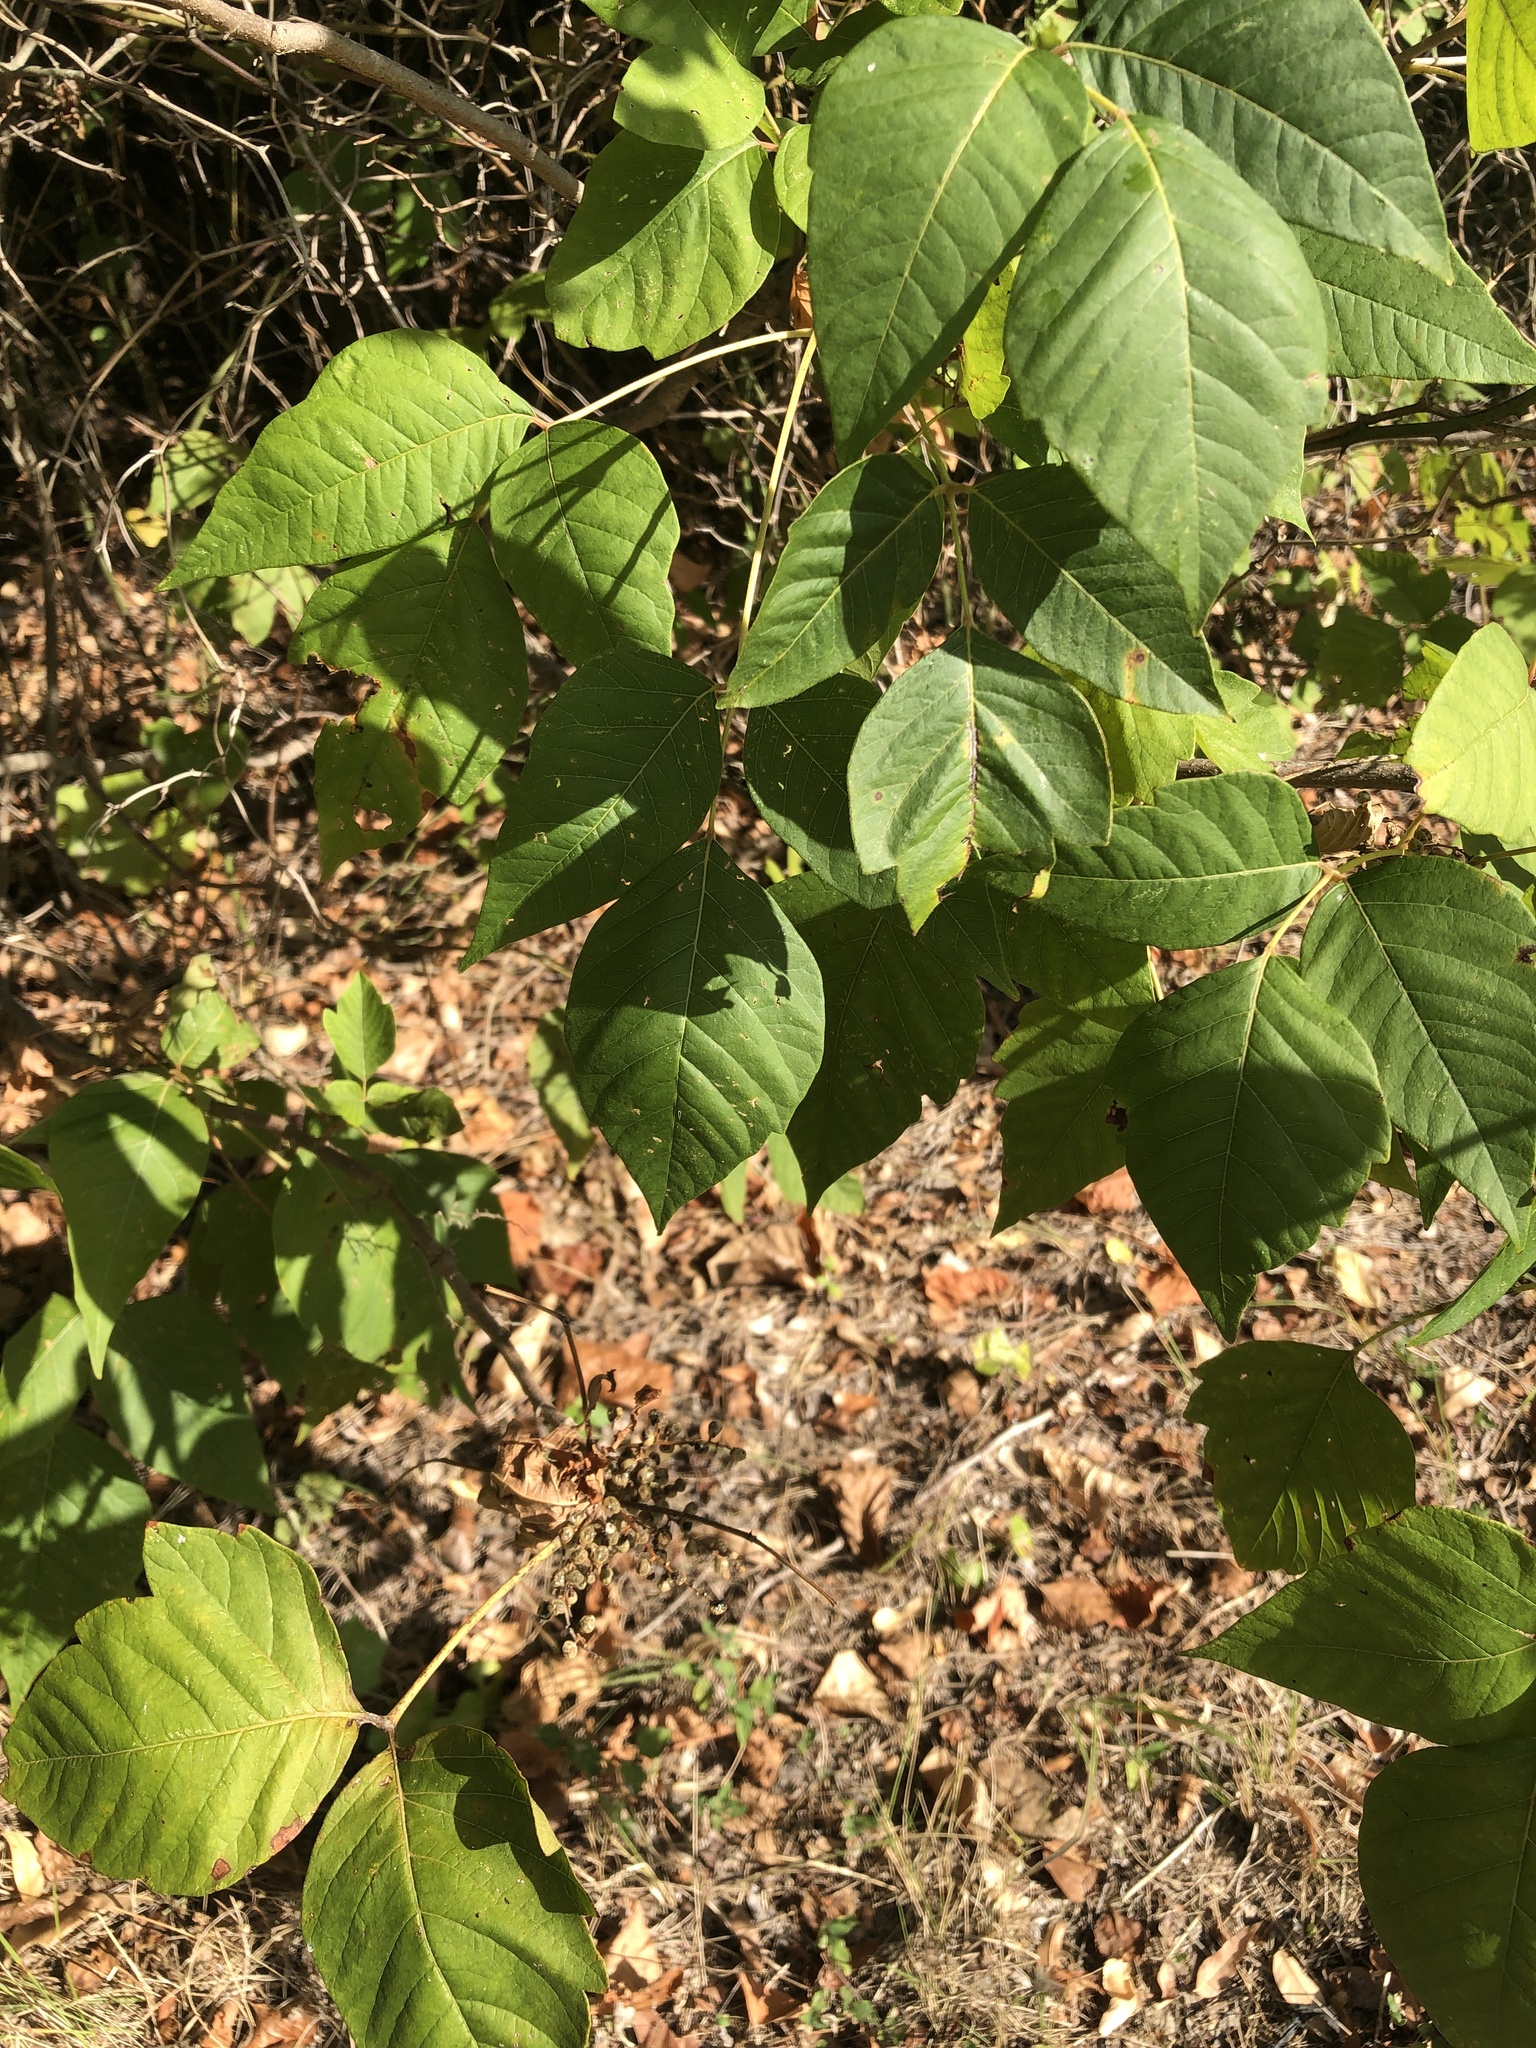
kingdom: Plantae
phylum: Tracheophyta
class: Magnoliopsida
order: Sapindales
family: Anacardiaceae
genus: Toxicodendron
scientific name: Toxicodendron radicans
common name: Poison ivy
